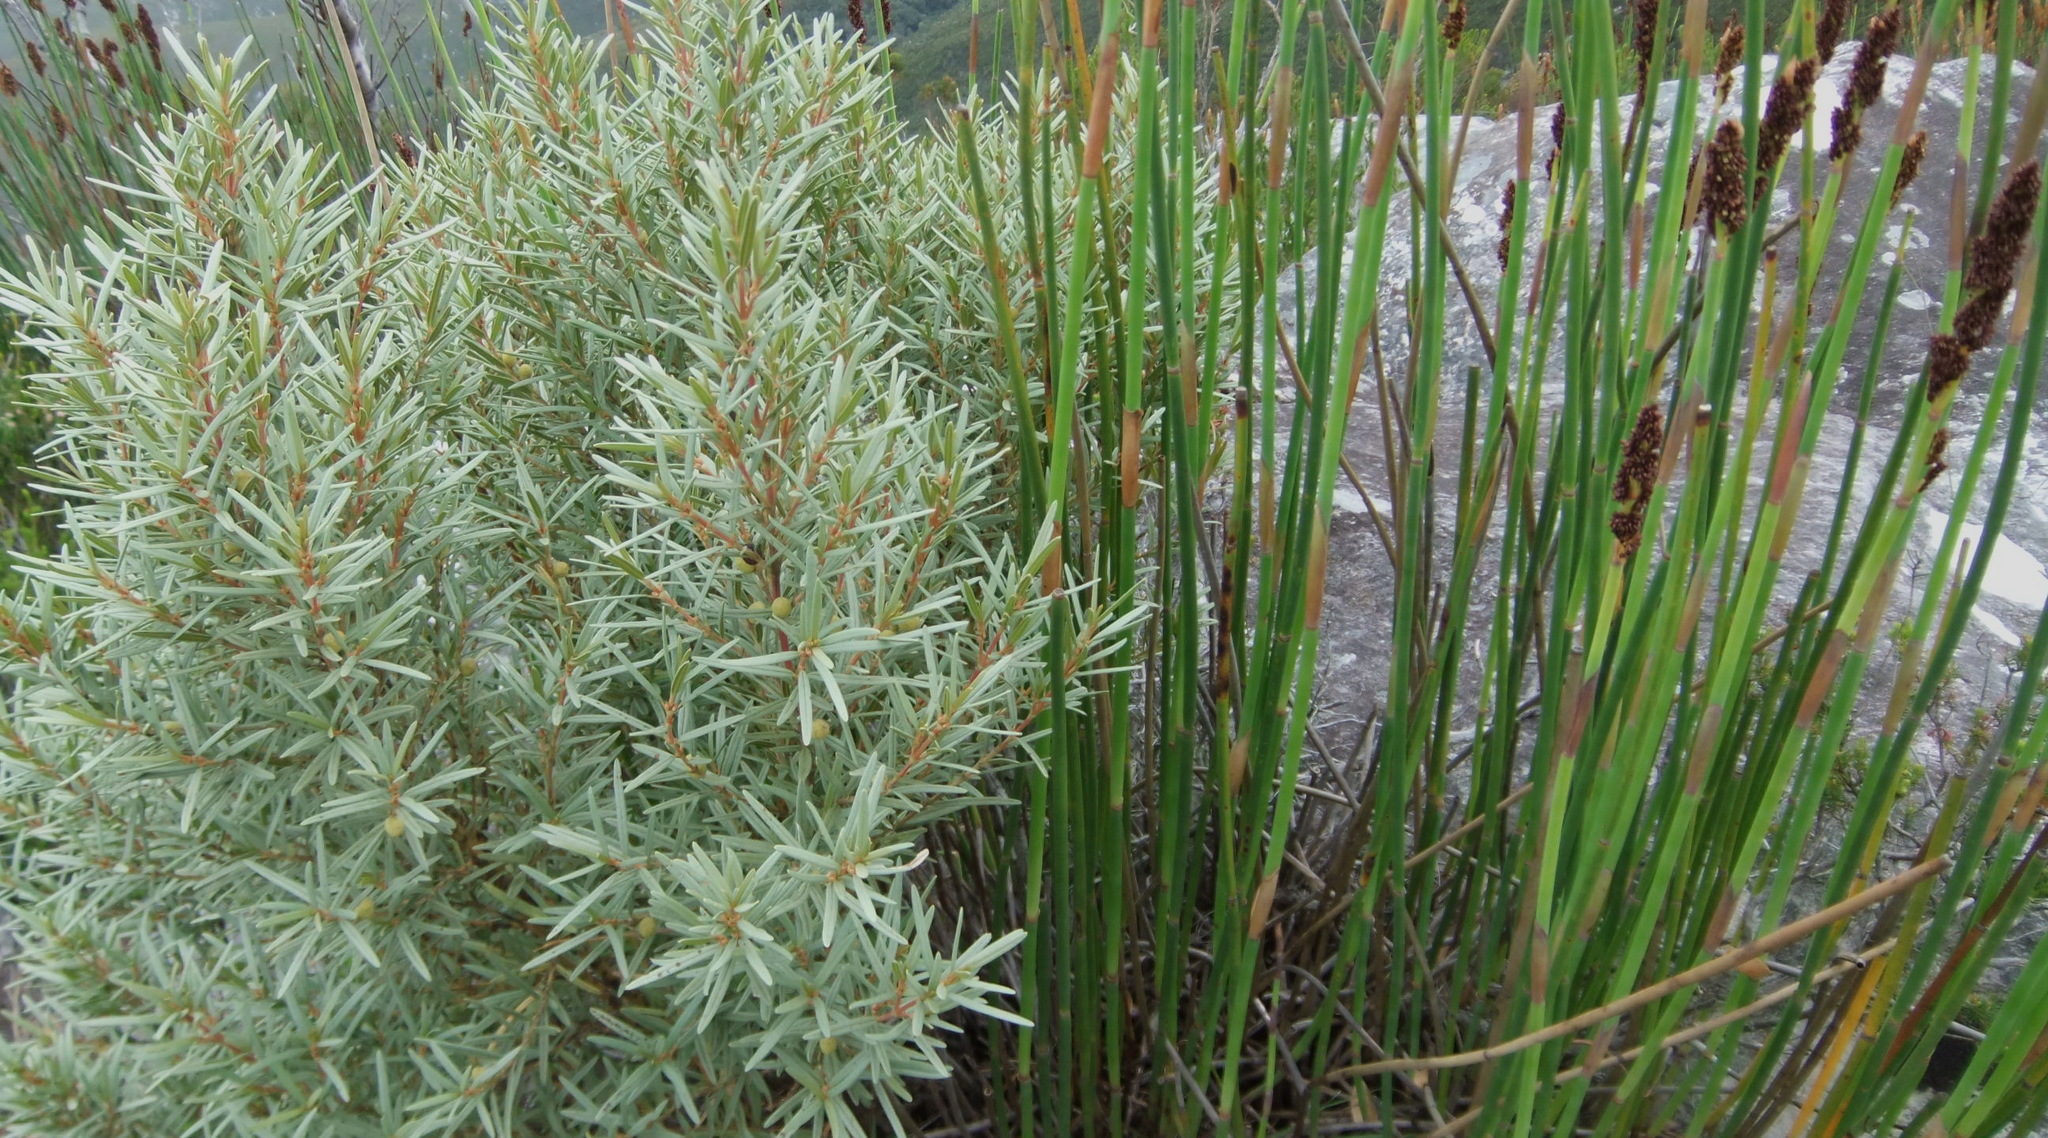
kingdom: Plantae
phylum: Tracheophyta
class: Magnoliopsida
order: Cornales
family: Grubbiaceae
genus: Grubbia
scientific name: Grubbia tomentosa
